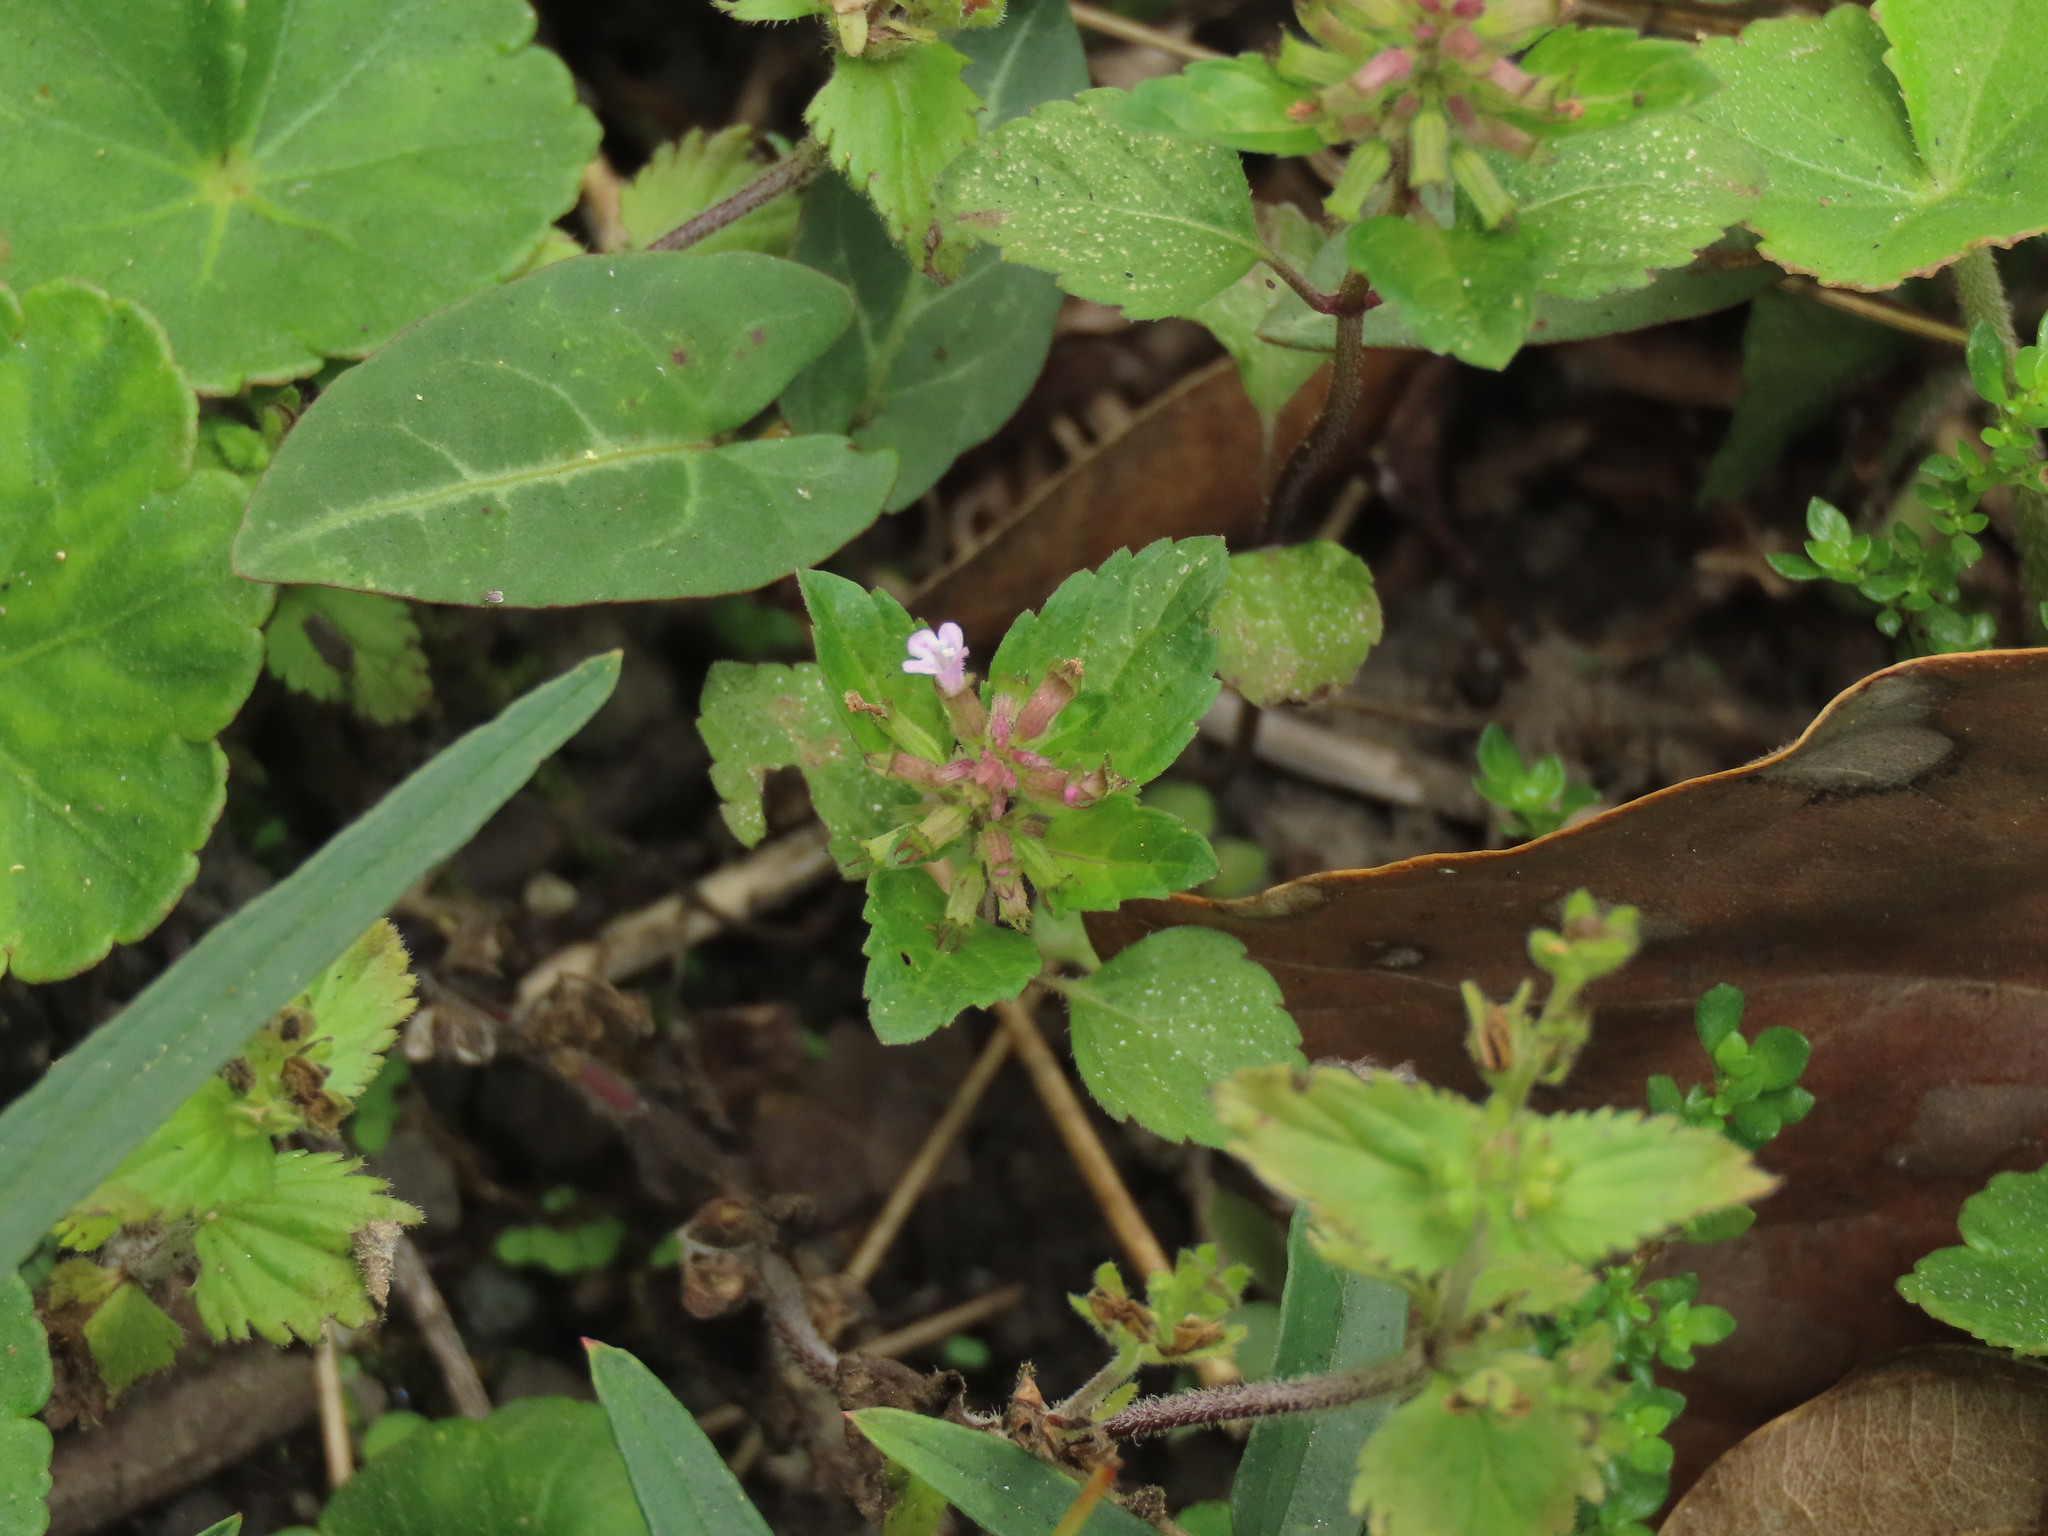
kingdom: Plantae
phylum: Tracheophyta
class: Magnoliopsida
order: Lamiales
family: Lamiaceae
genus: Clinopodium
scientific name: Clinopodium gracile
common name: Slender wild basil
